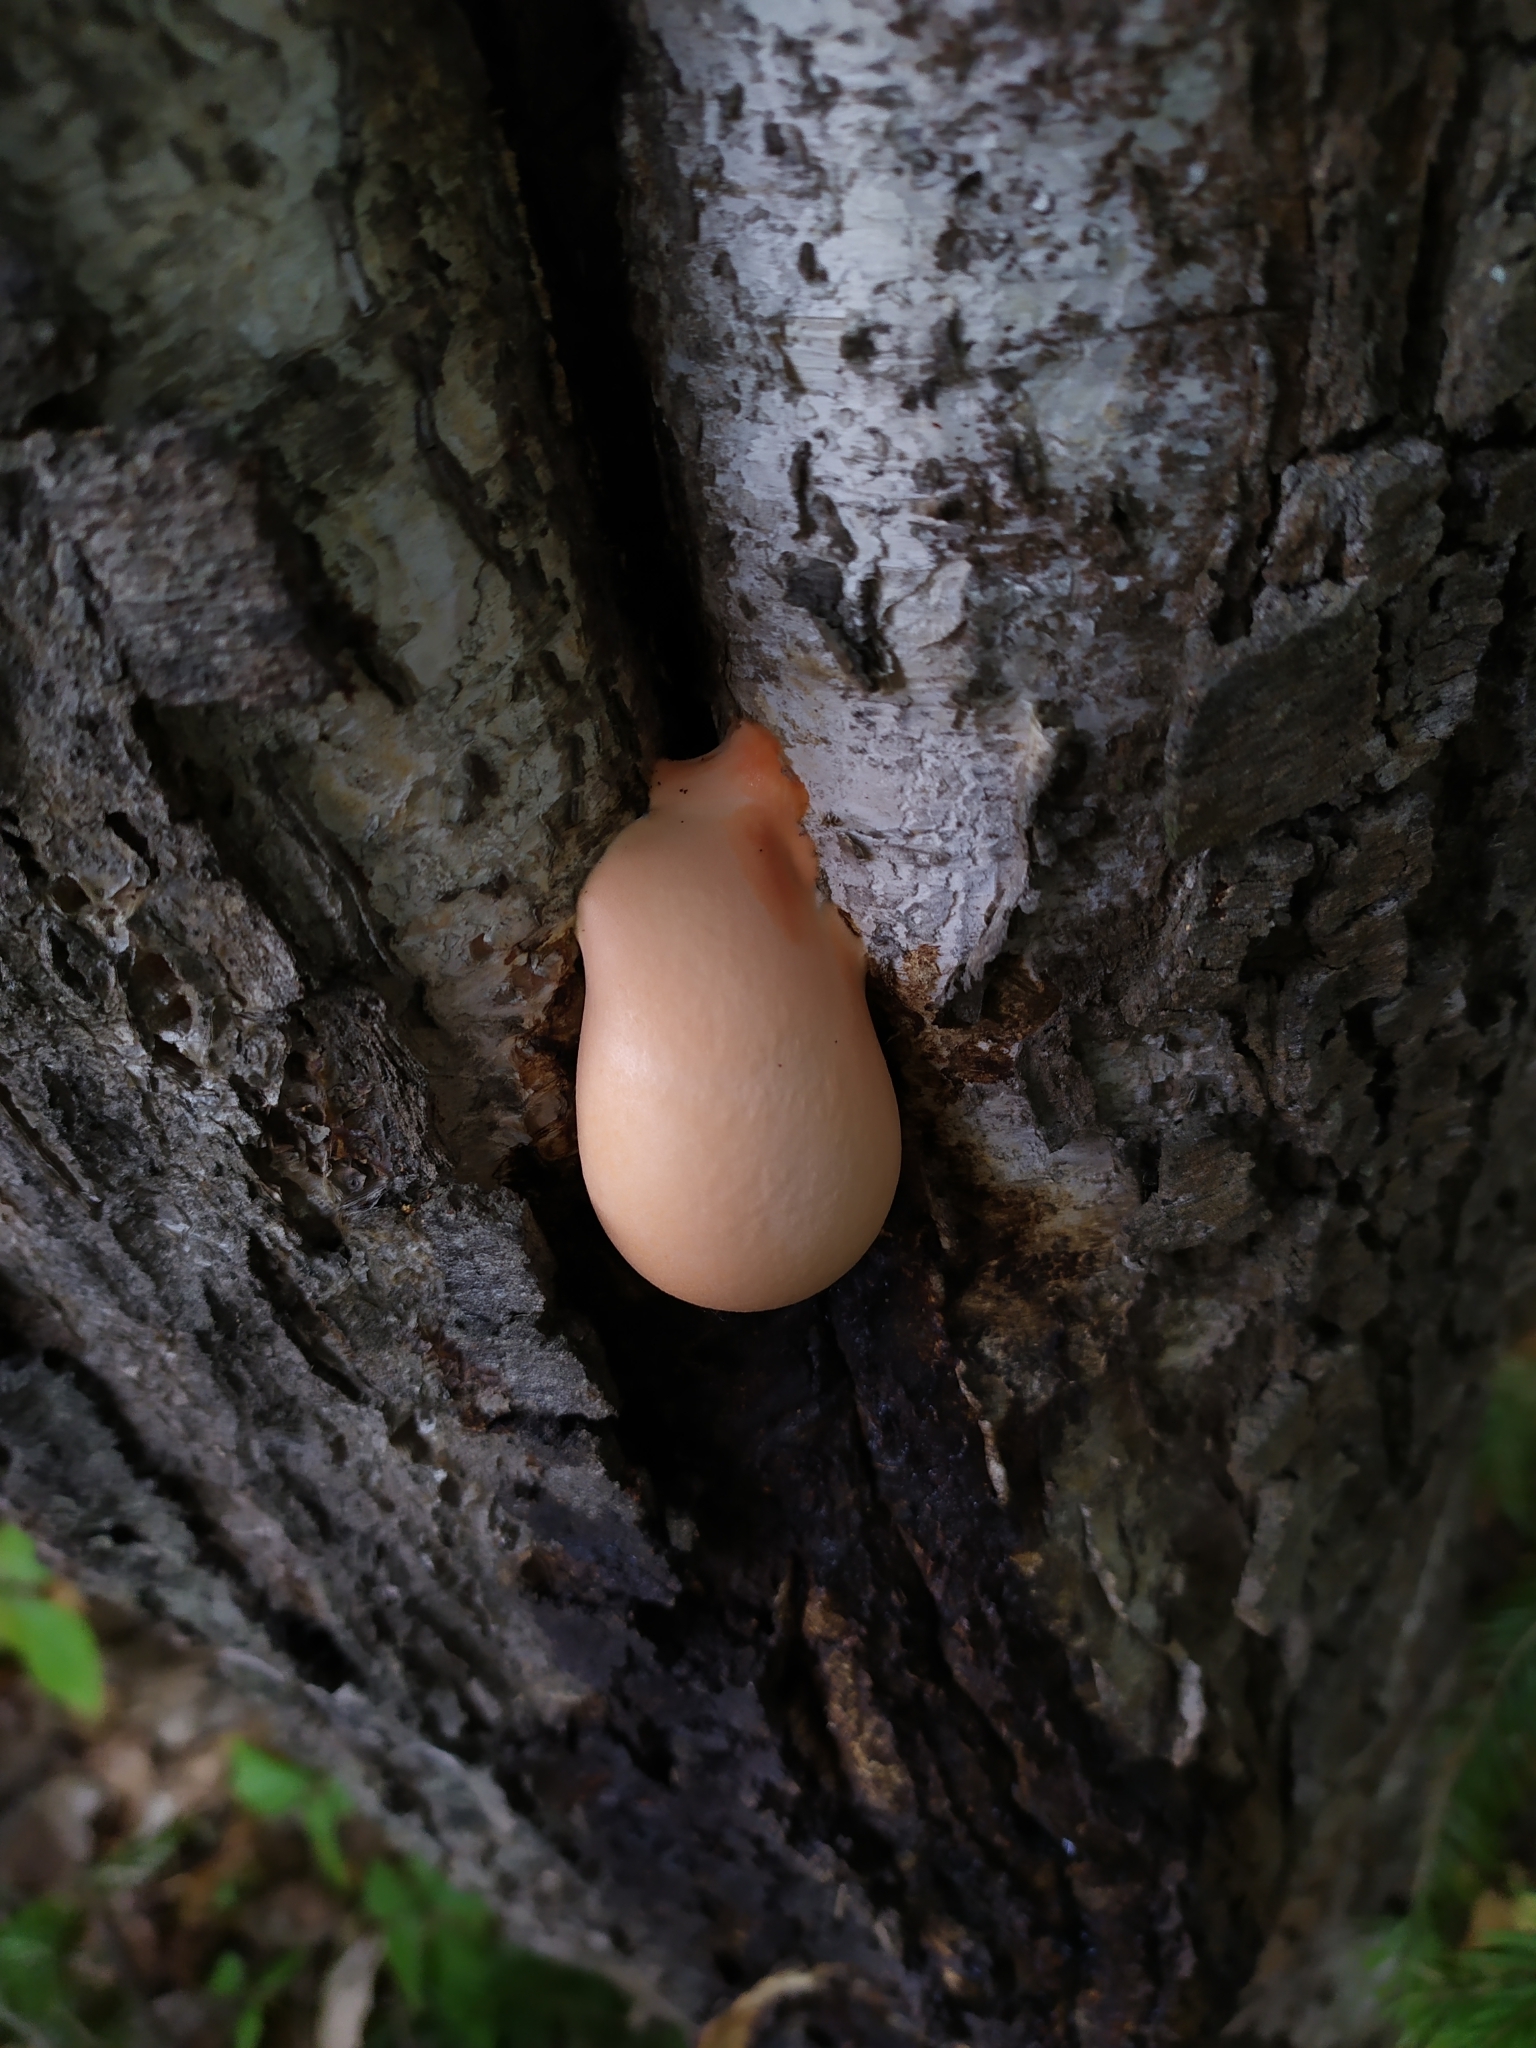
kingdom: Protozoa
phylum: Mycetozoa
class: Myxomycetes
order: Cribrariales
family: Tubiferaceae
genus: Lycogala
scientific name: Lycogala flavofuscum
